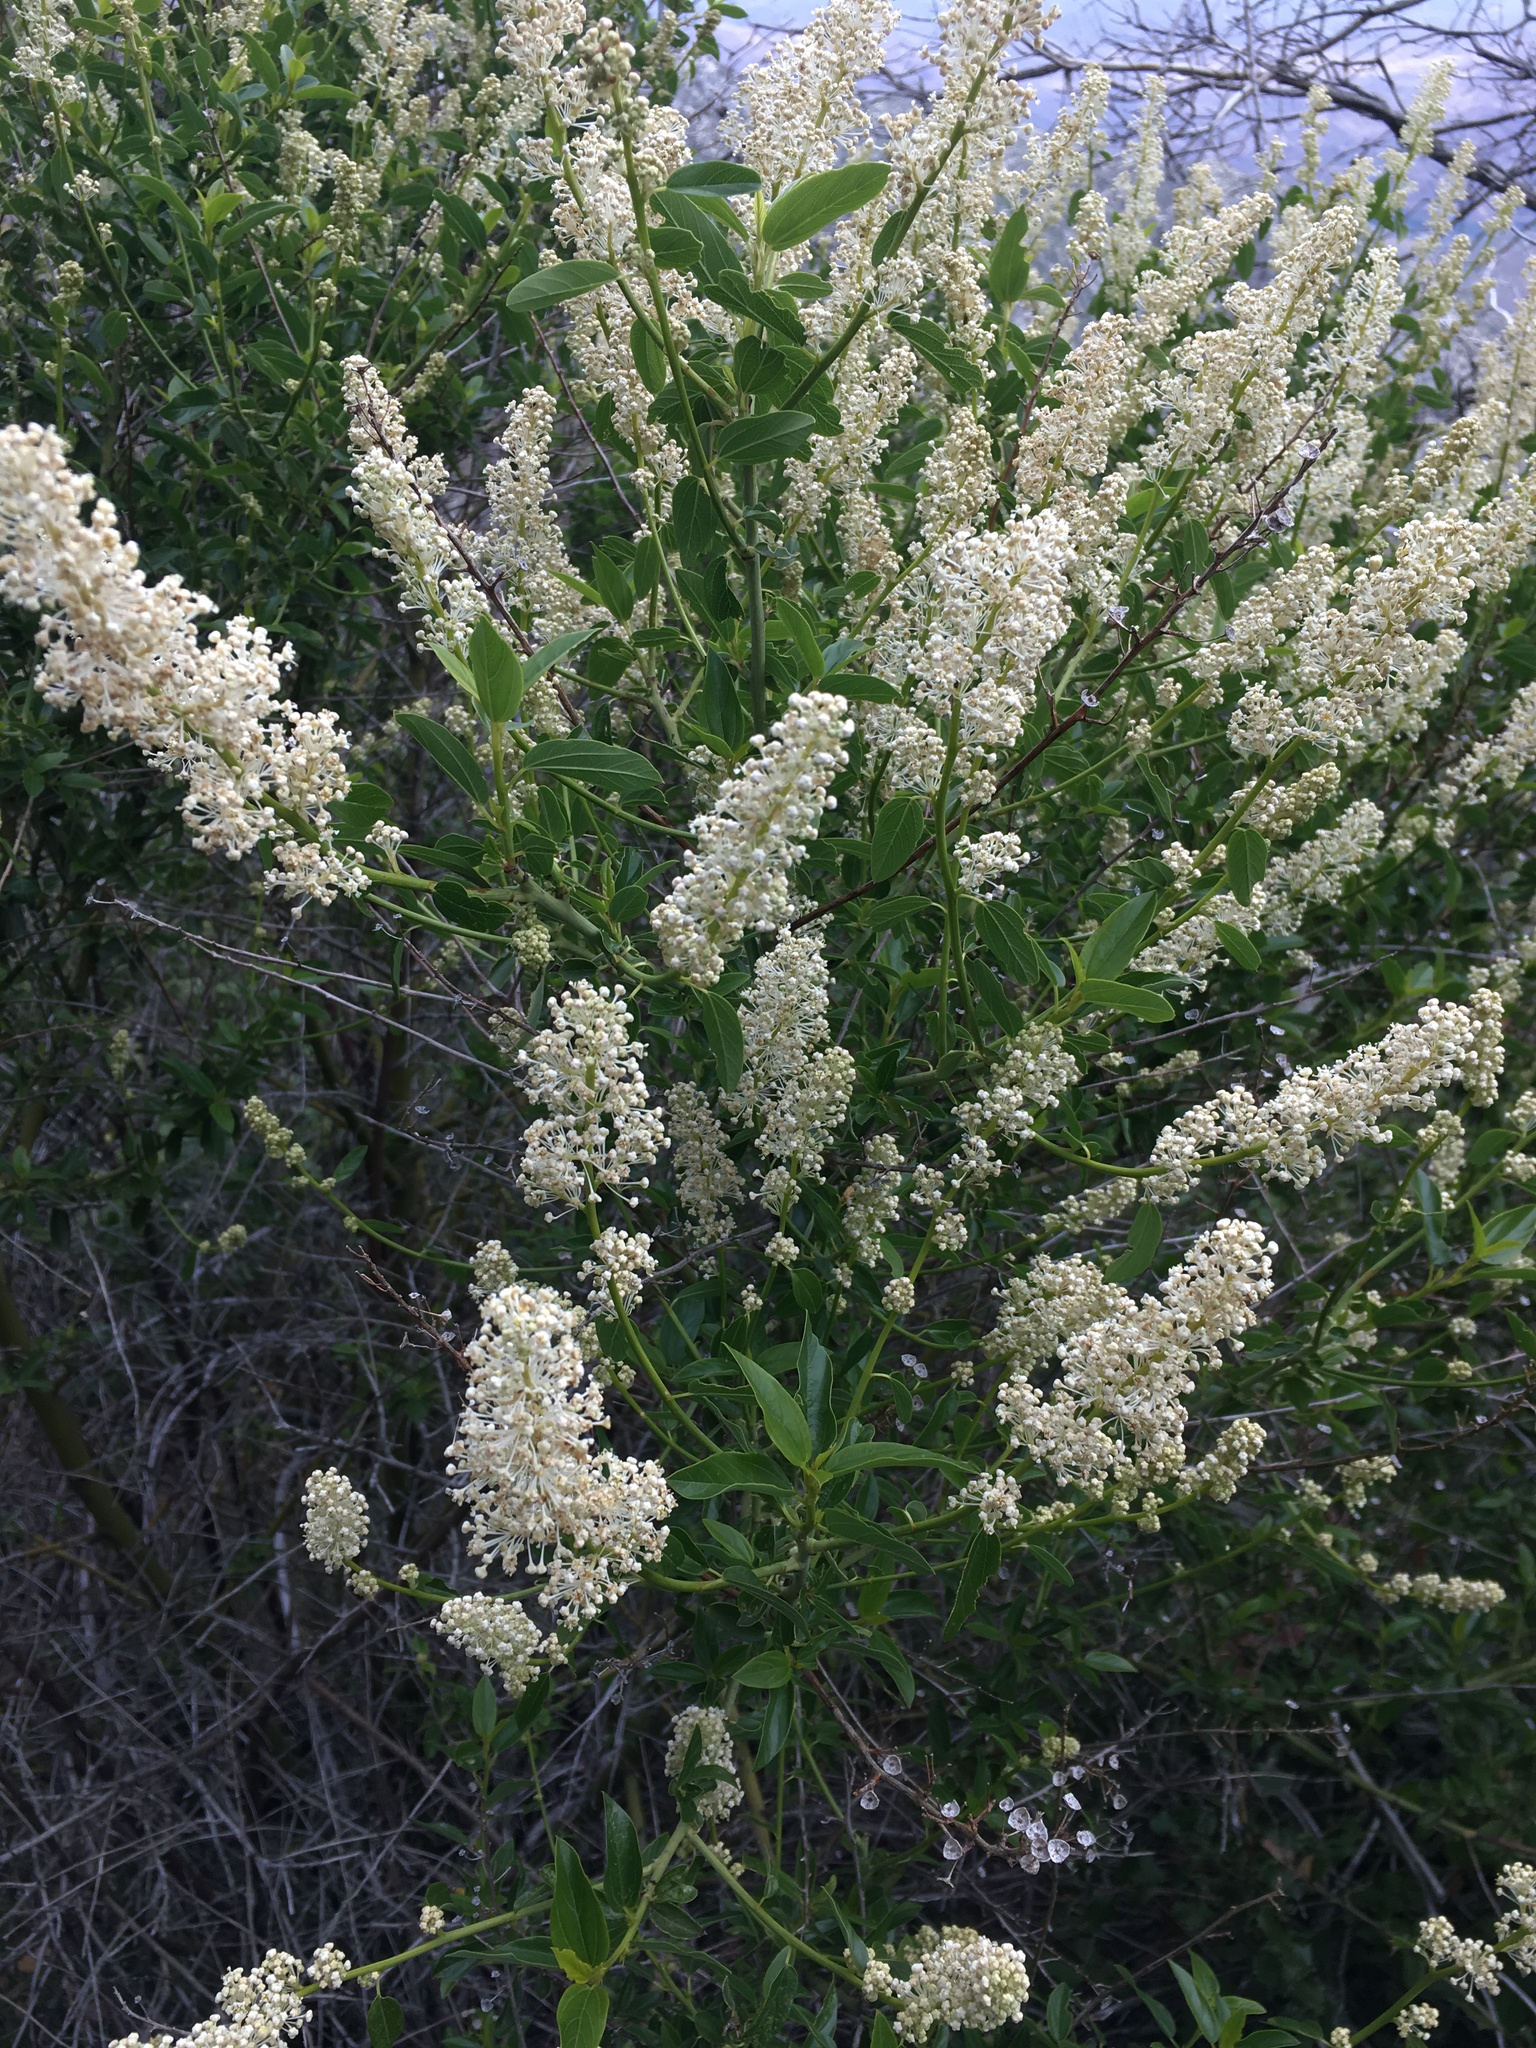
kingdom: Plantae
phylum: Tracheophyta
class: Magnoliopsida
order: Rosales
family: Rhamnaceae
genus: Ceanothus
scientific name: Ceanothus integerrimus
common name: Deerbrush ceanothus
